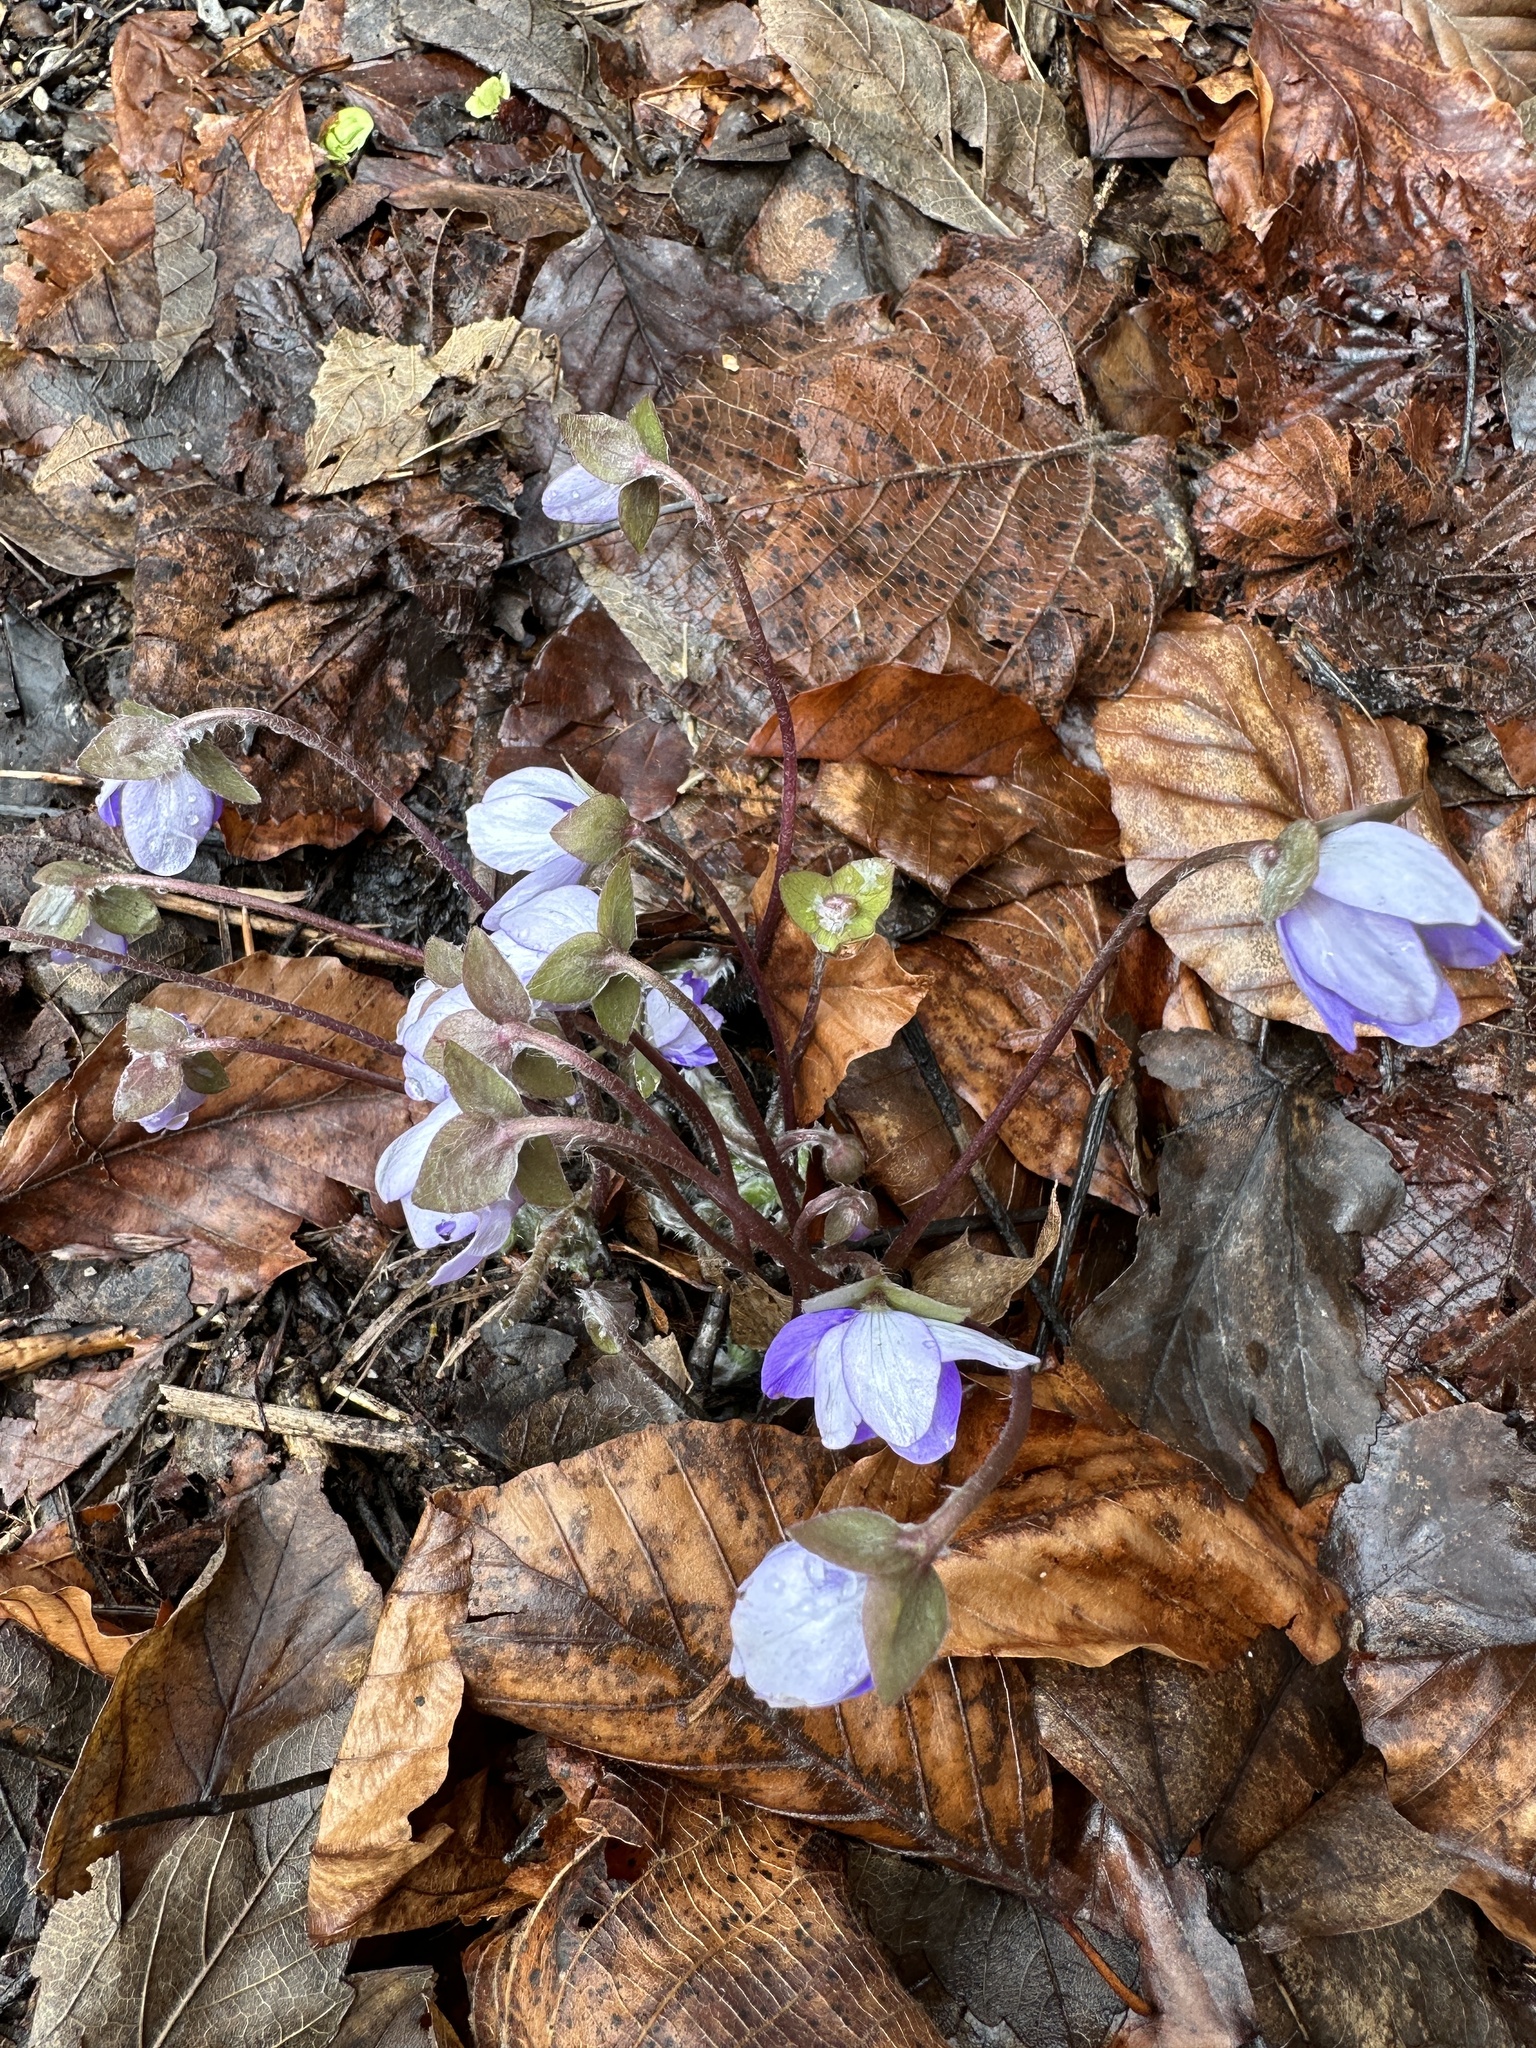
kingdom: Plantae
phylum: Tracheophyta
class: Magnoliopsida
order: Ranunculales
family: Ranunculaceae
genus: Hepatica
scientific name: Hepatica nobilis
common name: Liverleaf
